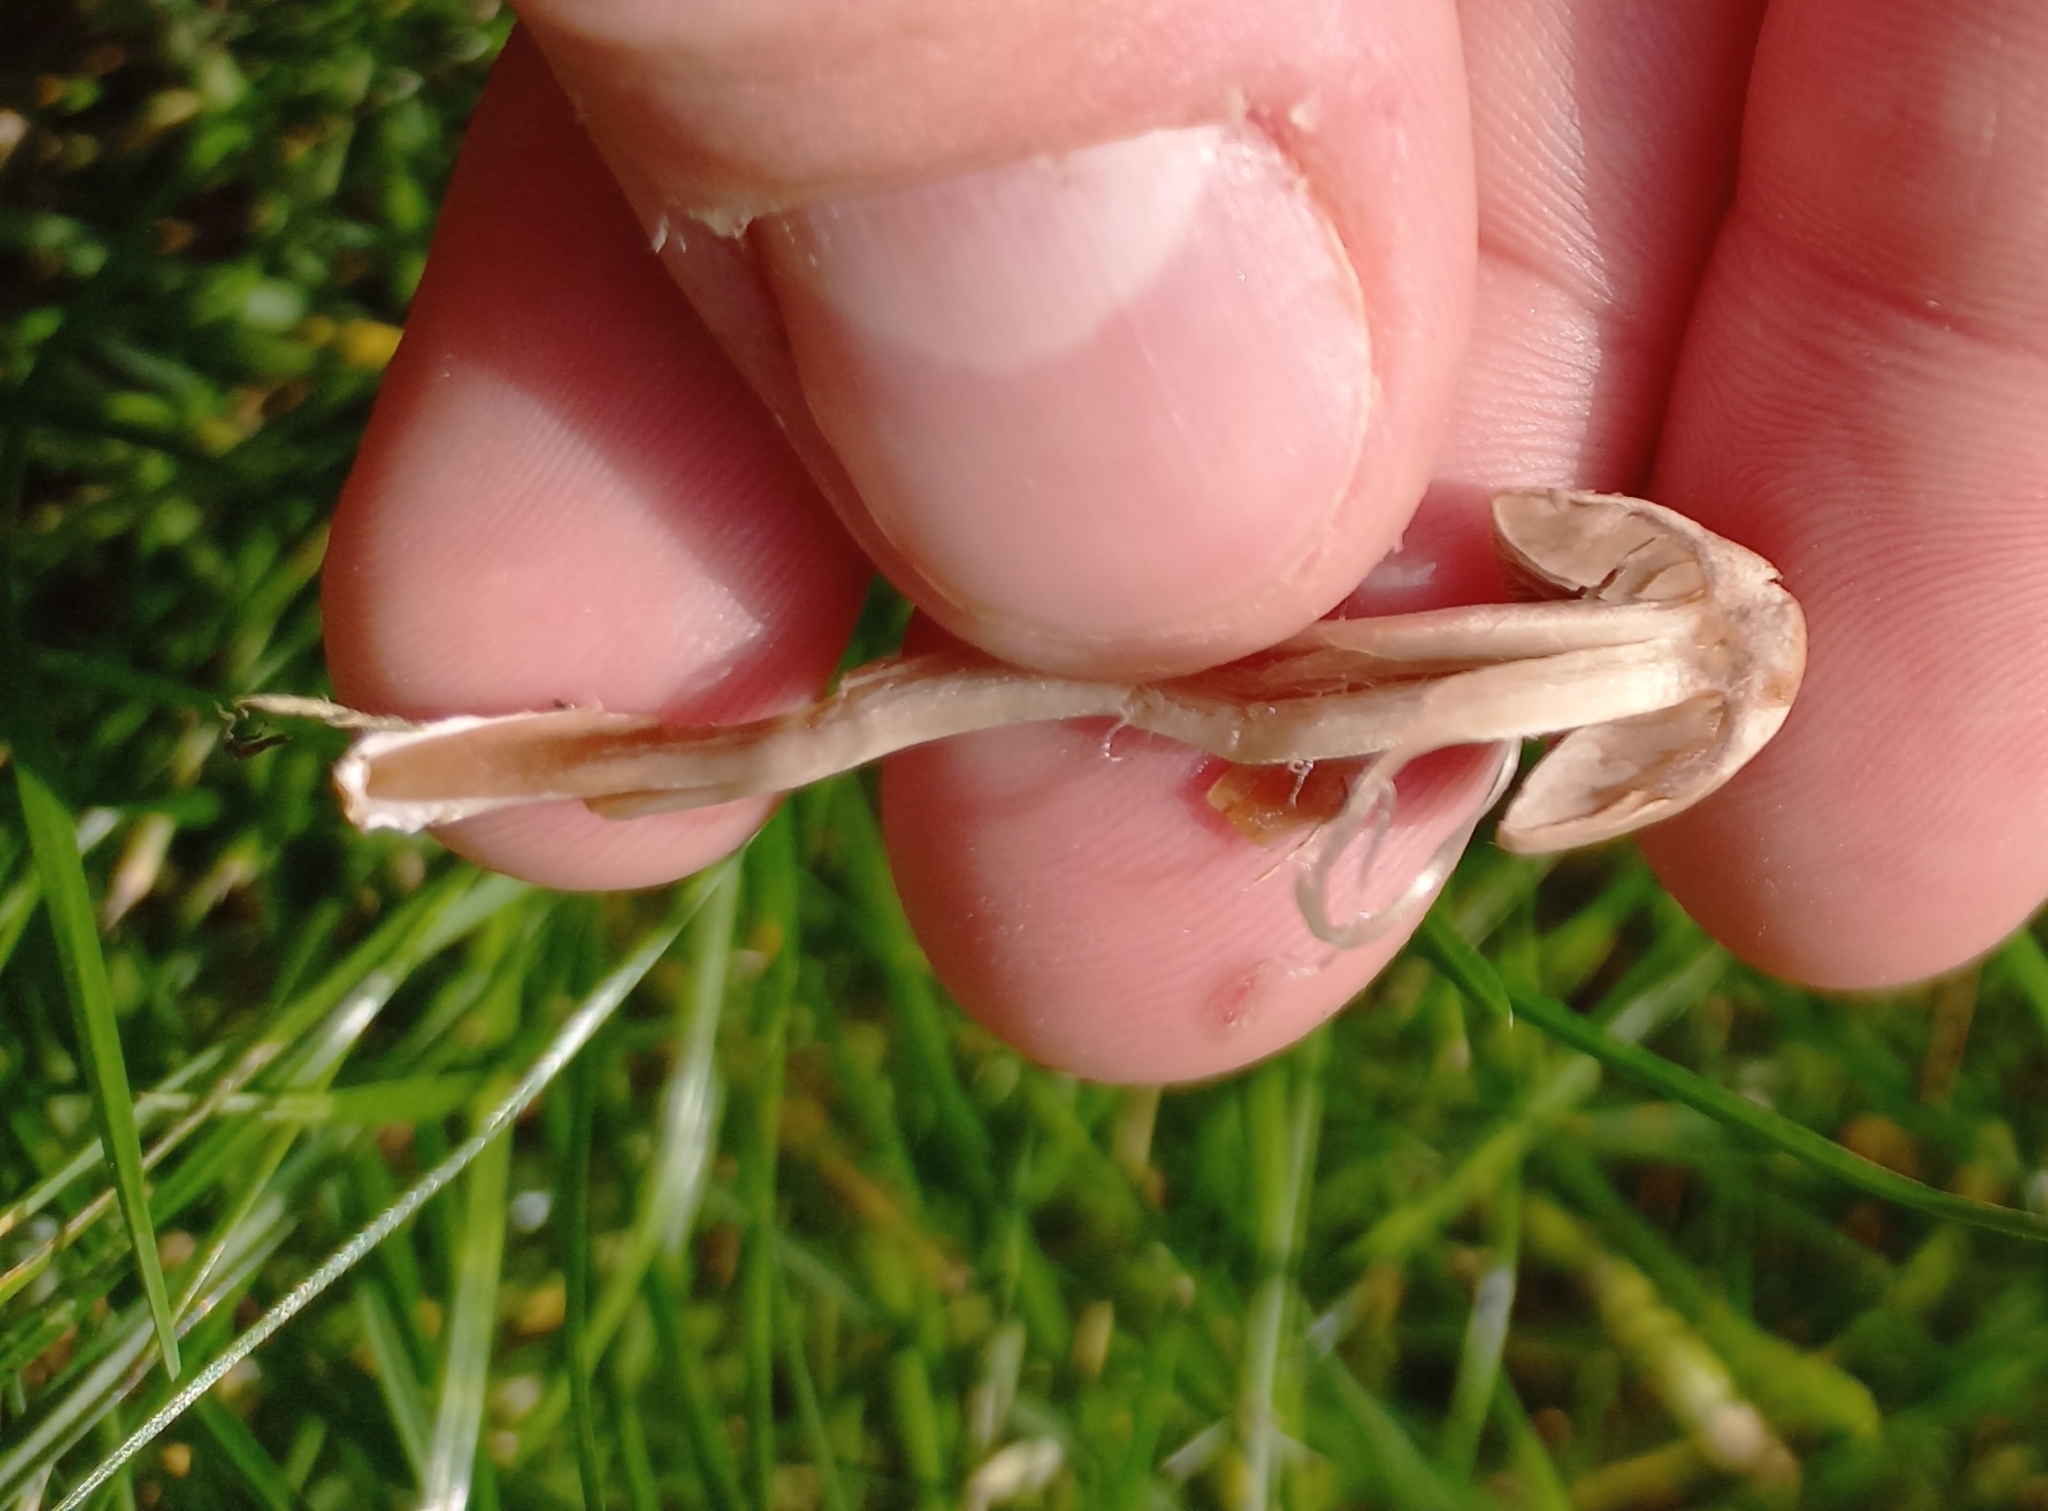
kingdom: Fungi
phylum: Basidiomycota
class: Agaricomycetes
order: Agaricales
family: Bolbitiaceae
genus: Panaeolina
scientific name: Panaeolina foenisecii
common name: Brown hay cap
